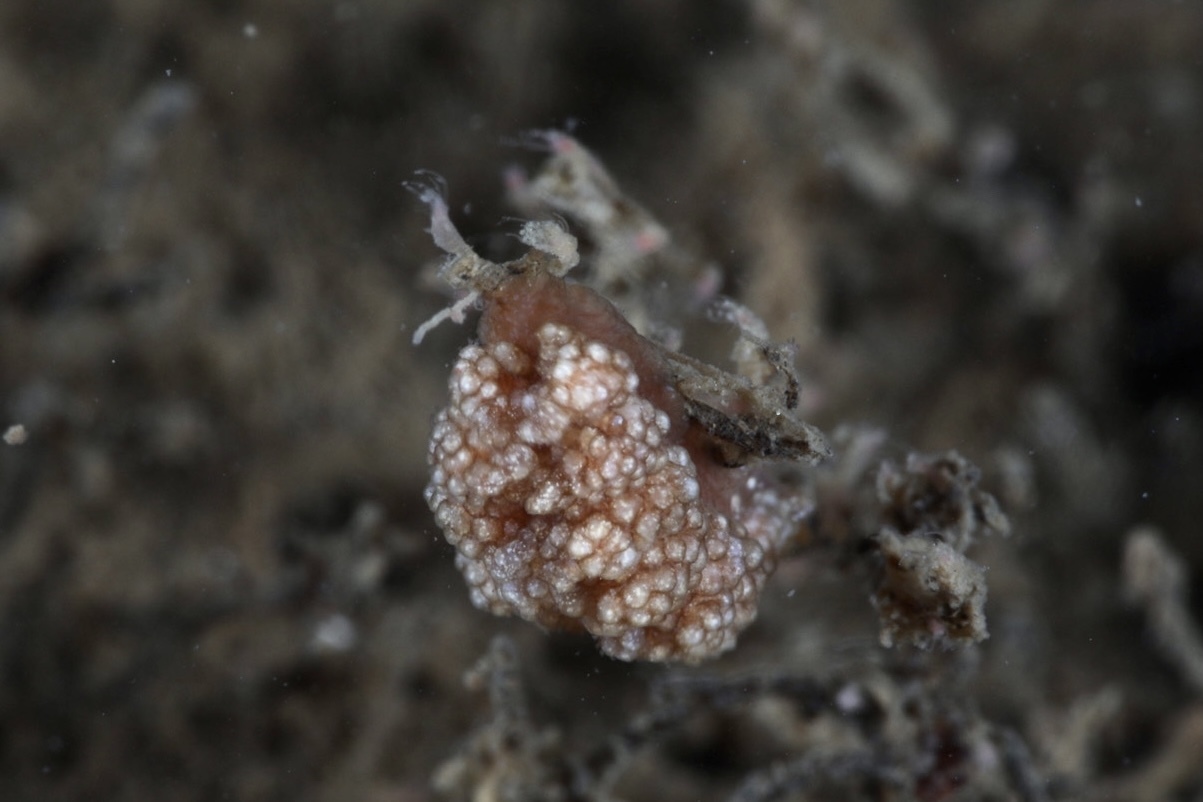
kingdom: Animalia
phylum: Mollusca
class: Gastropoda
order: Nudibranchia
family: Dotidae
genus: Doto
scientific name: Doto fragilis
